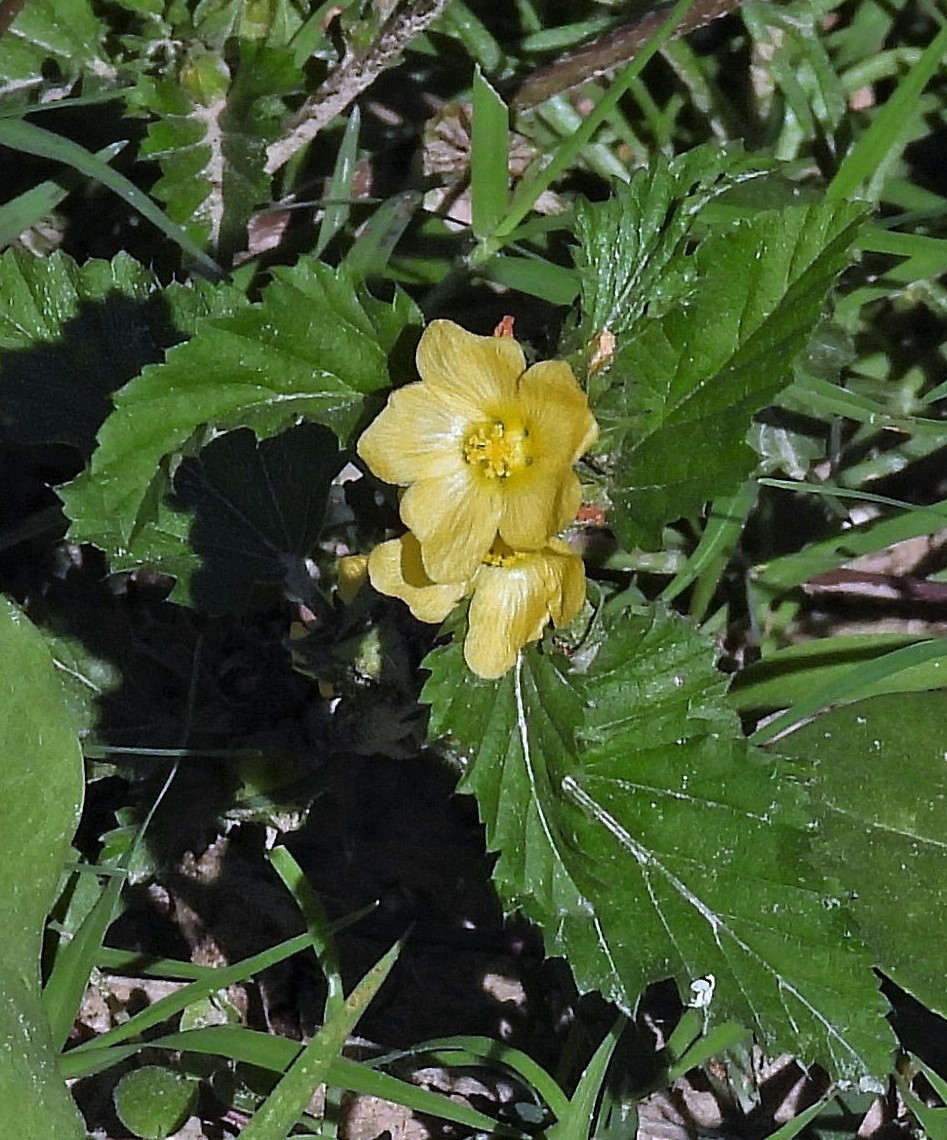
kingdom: Plantae
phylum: Tracheophyta
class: Magnoliopsida
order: Malvales
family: Malvaceae
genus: Malvastrum
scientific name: Malvastrum coromandelianum
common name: Threelobe false mallow
